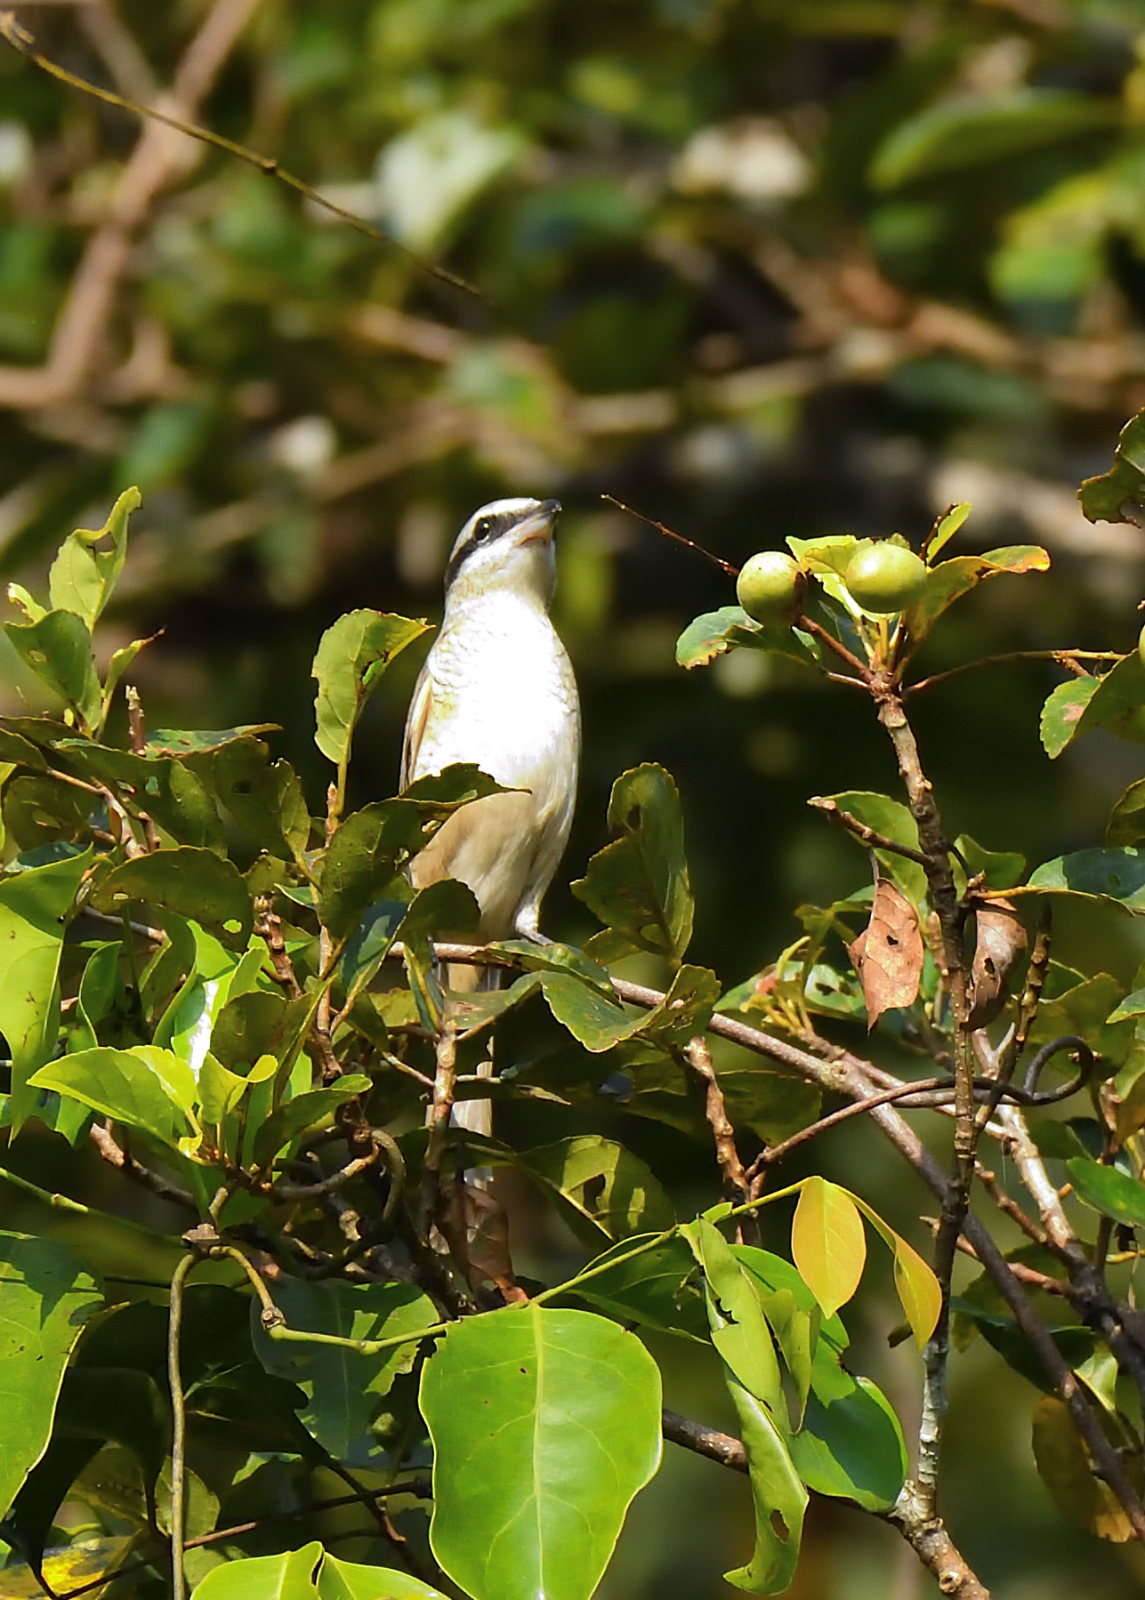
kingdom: Animalia
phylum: Chordata
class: Aves
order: Passeriformes
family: Laniidae
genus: Lanius
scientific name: Lanius cristatus
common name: Brown shrike
